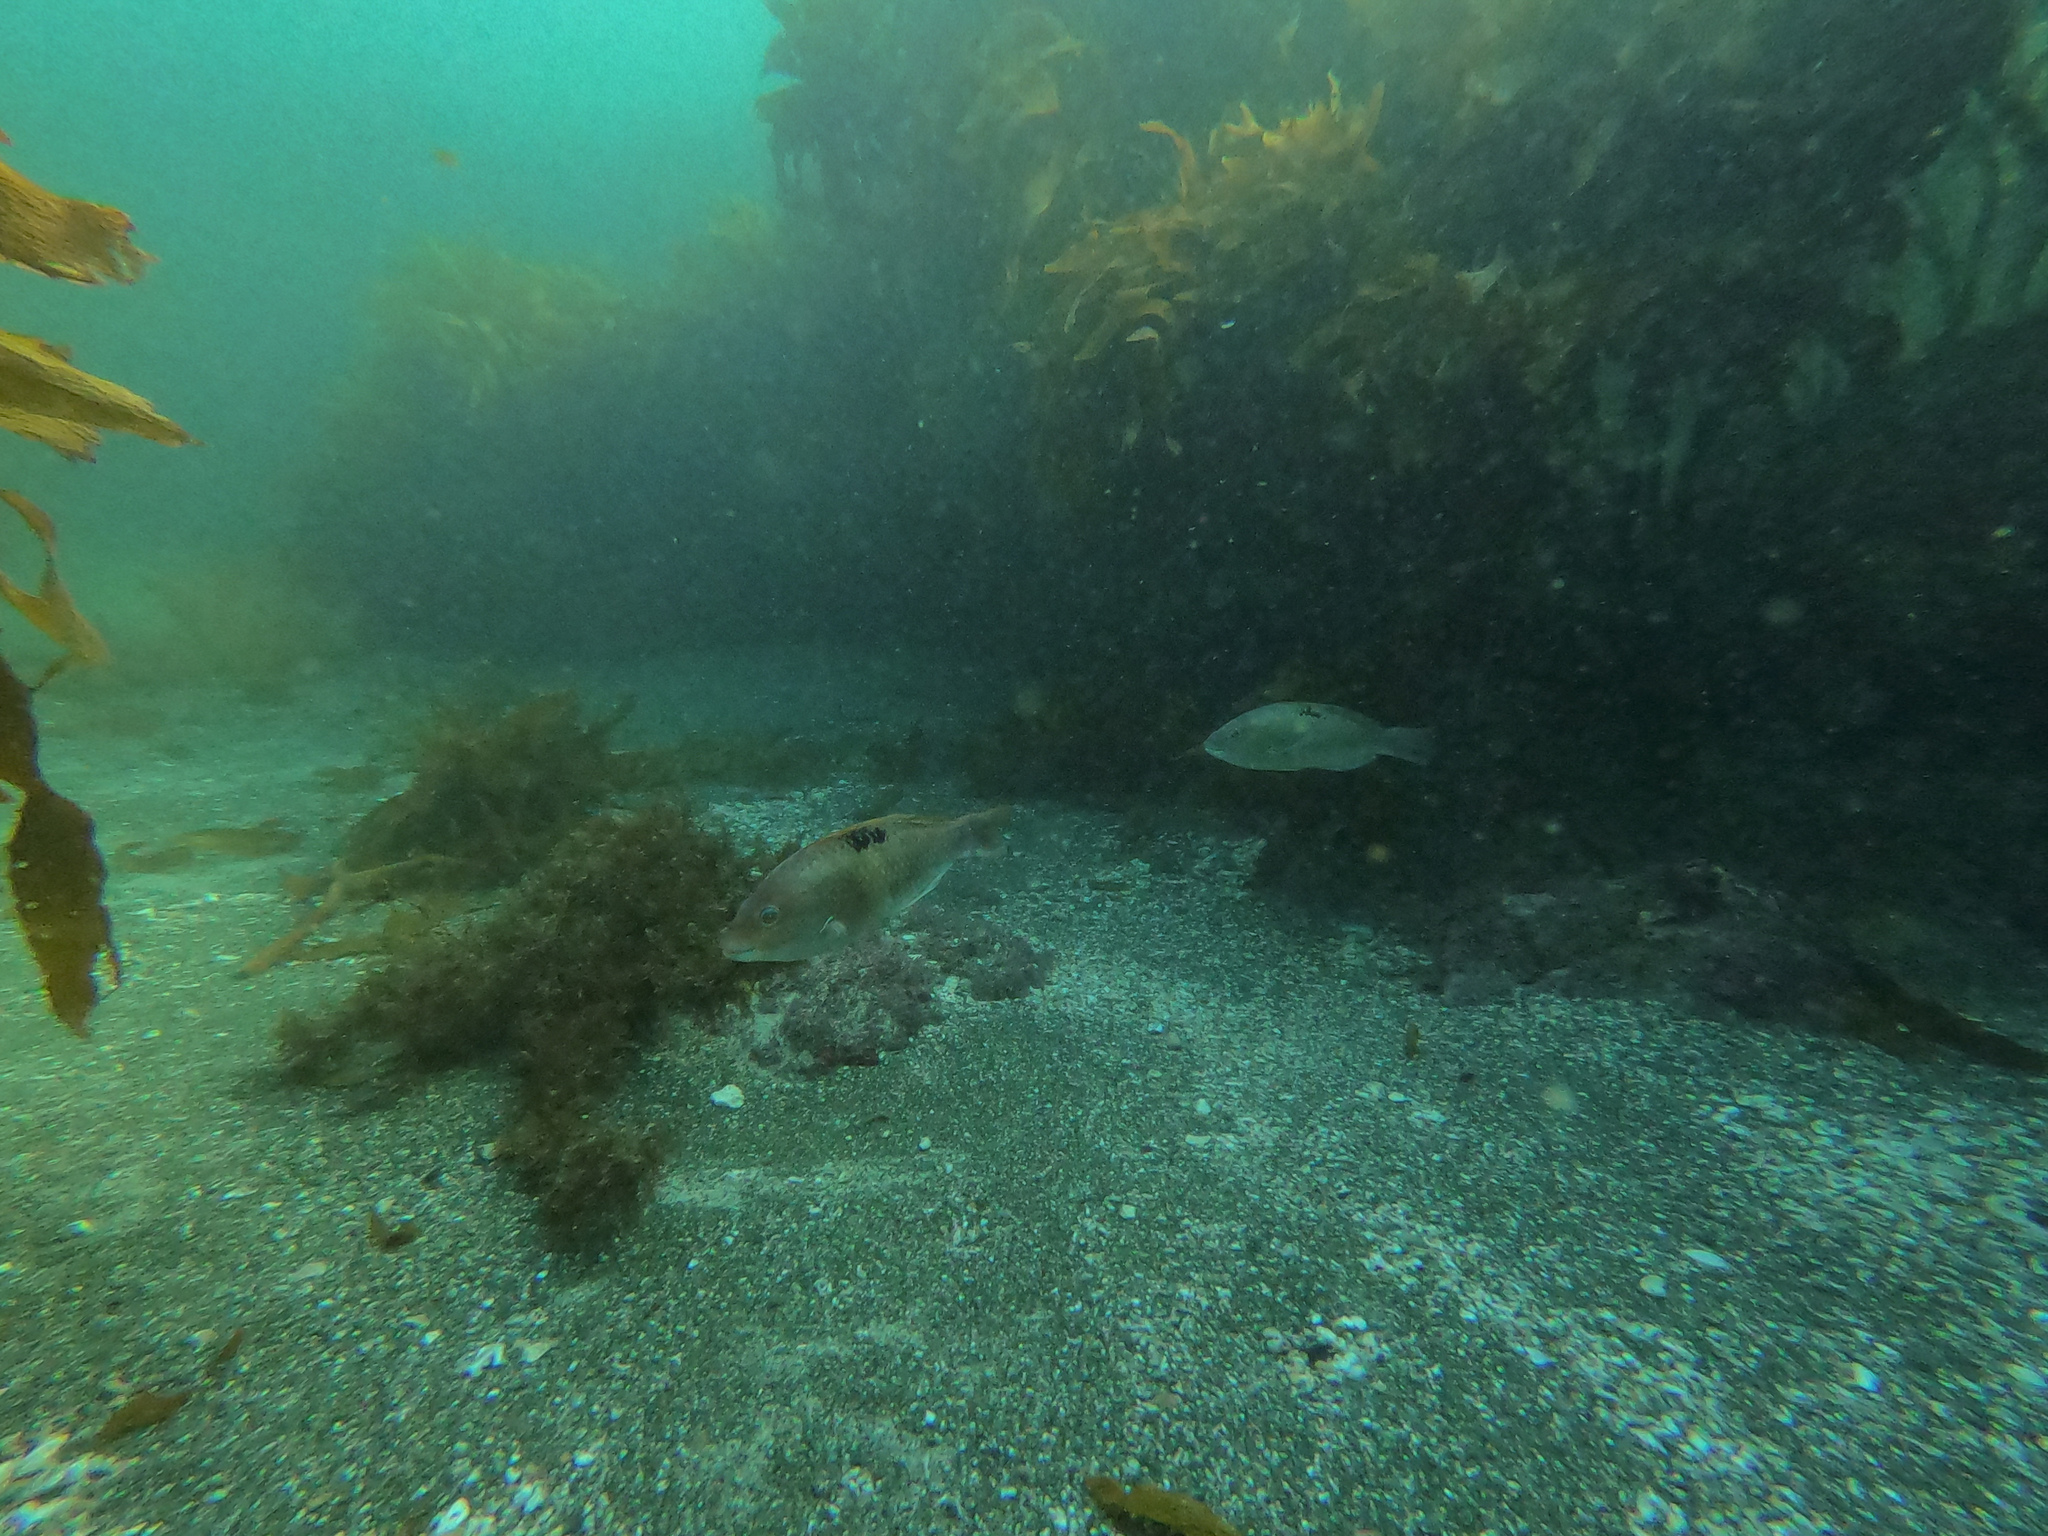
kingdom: Animalia
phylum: Chordata
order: Perciformes
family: Labridae
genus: Notolabrus
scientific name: Notolabrus celidotus
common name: Spotty
